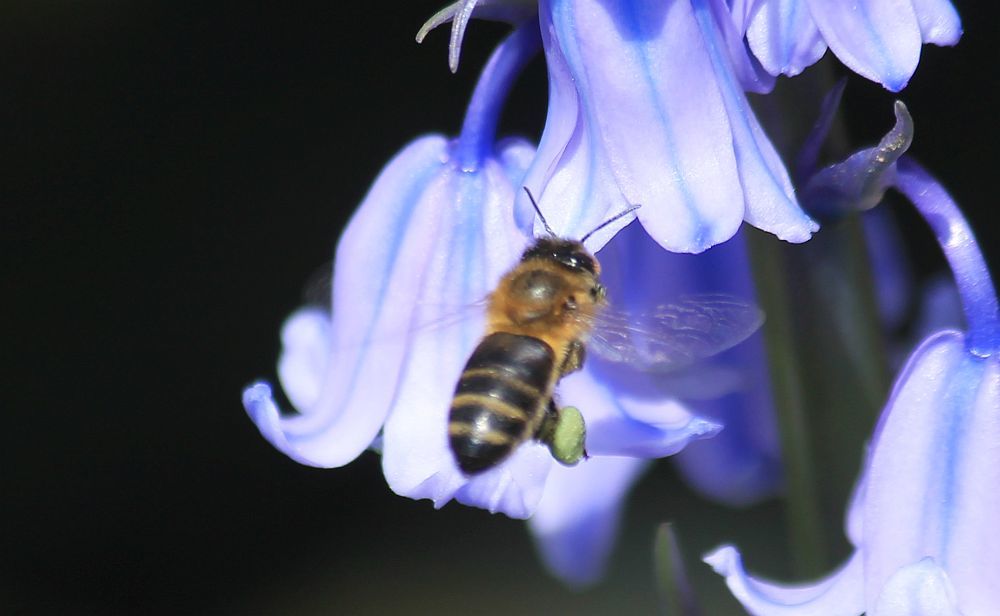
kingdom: Animalia
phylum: Arthropoda
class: Insecta
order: Hymenoptera
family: Apidae
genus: Apis
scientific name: Apis mellifera
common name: Honey bee
